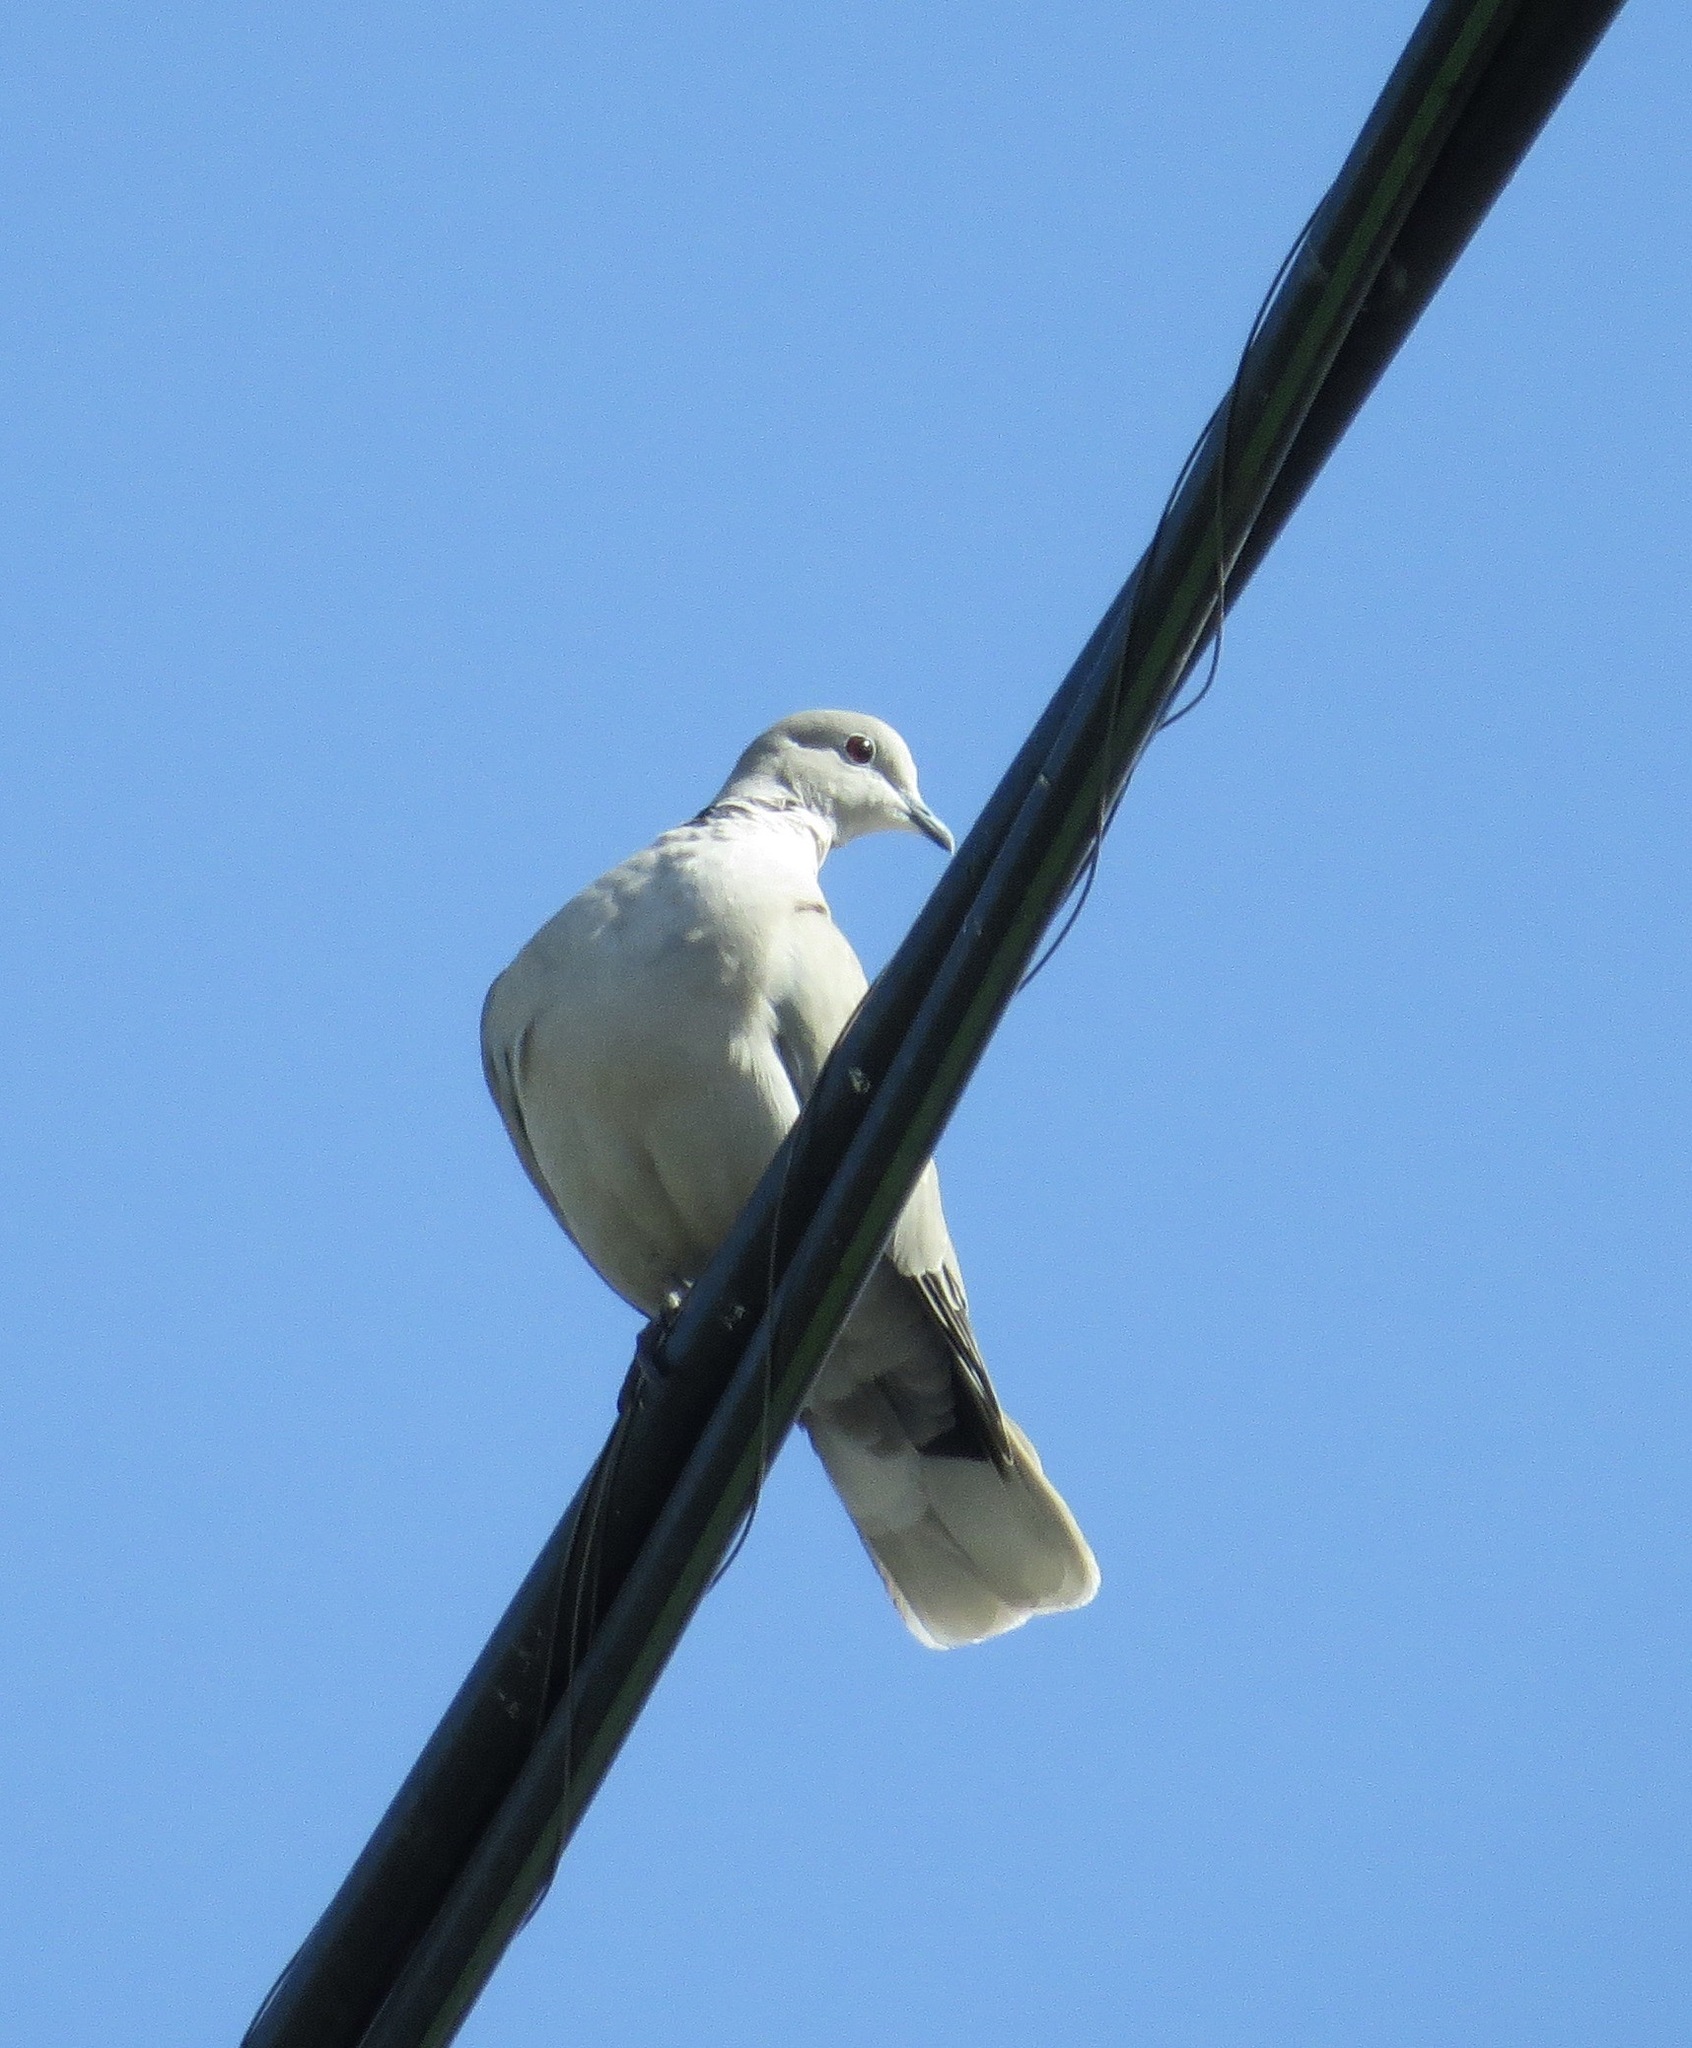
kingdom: Animalia
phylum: Chordata
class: Aves
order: Columbiformes
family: Columbidae
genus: Streptopelia
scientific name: Streptopelia decaocto
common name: Eurasian collared dove
